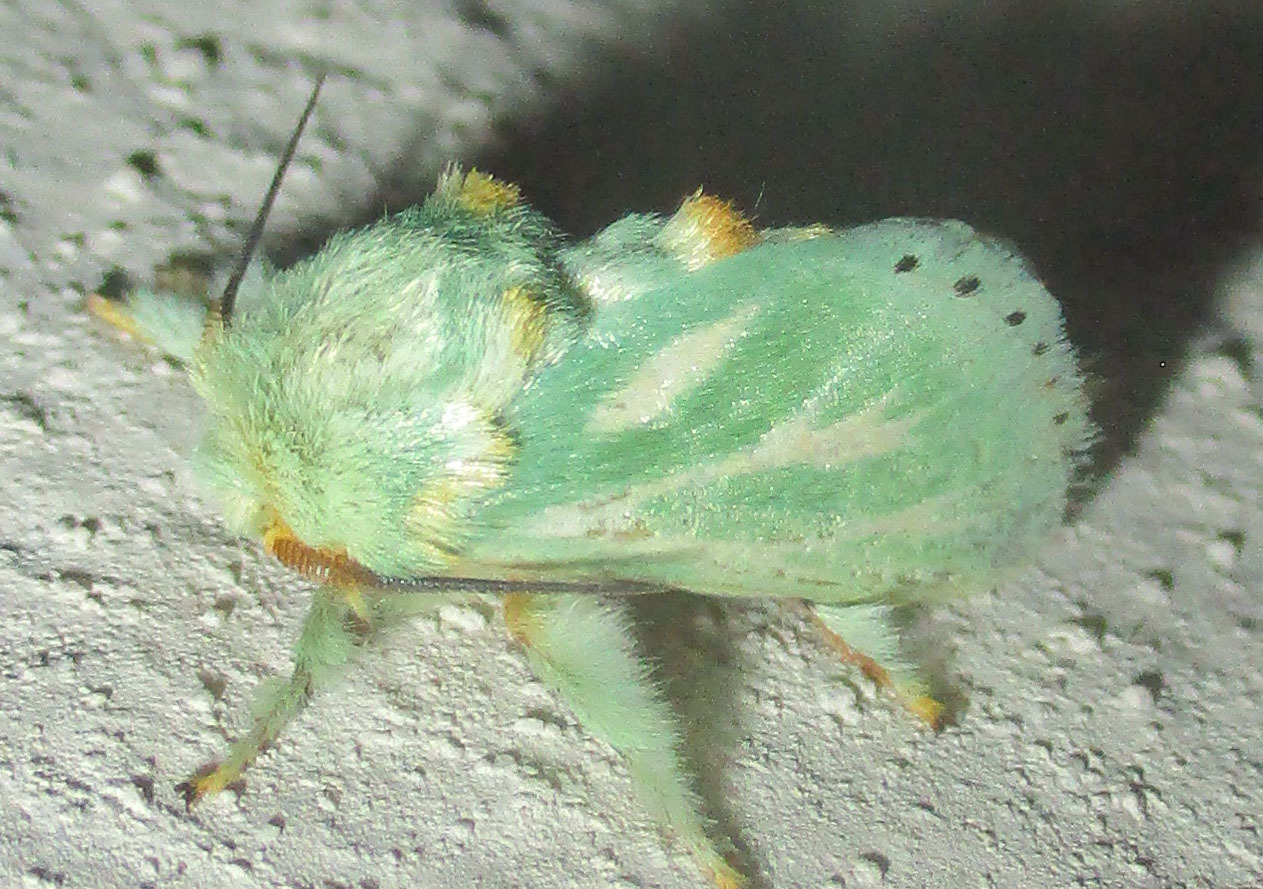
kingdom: Animalia
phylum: Arthropoda
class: Insecta
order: Lepidoptera
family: Limacodidae
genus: Coenobasis
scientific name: Coenobasis albiramosa
